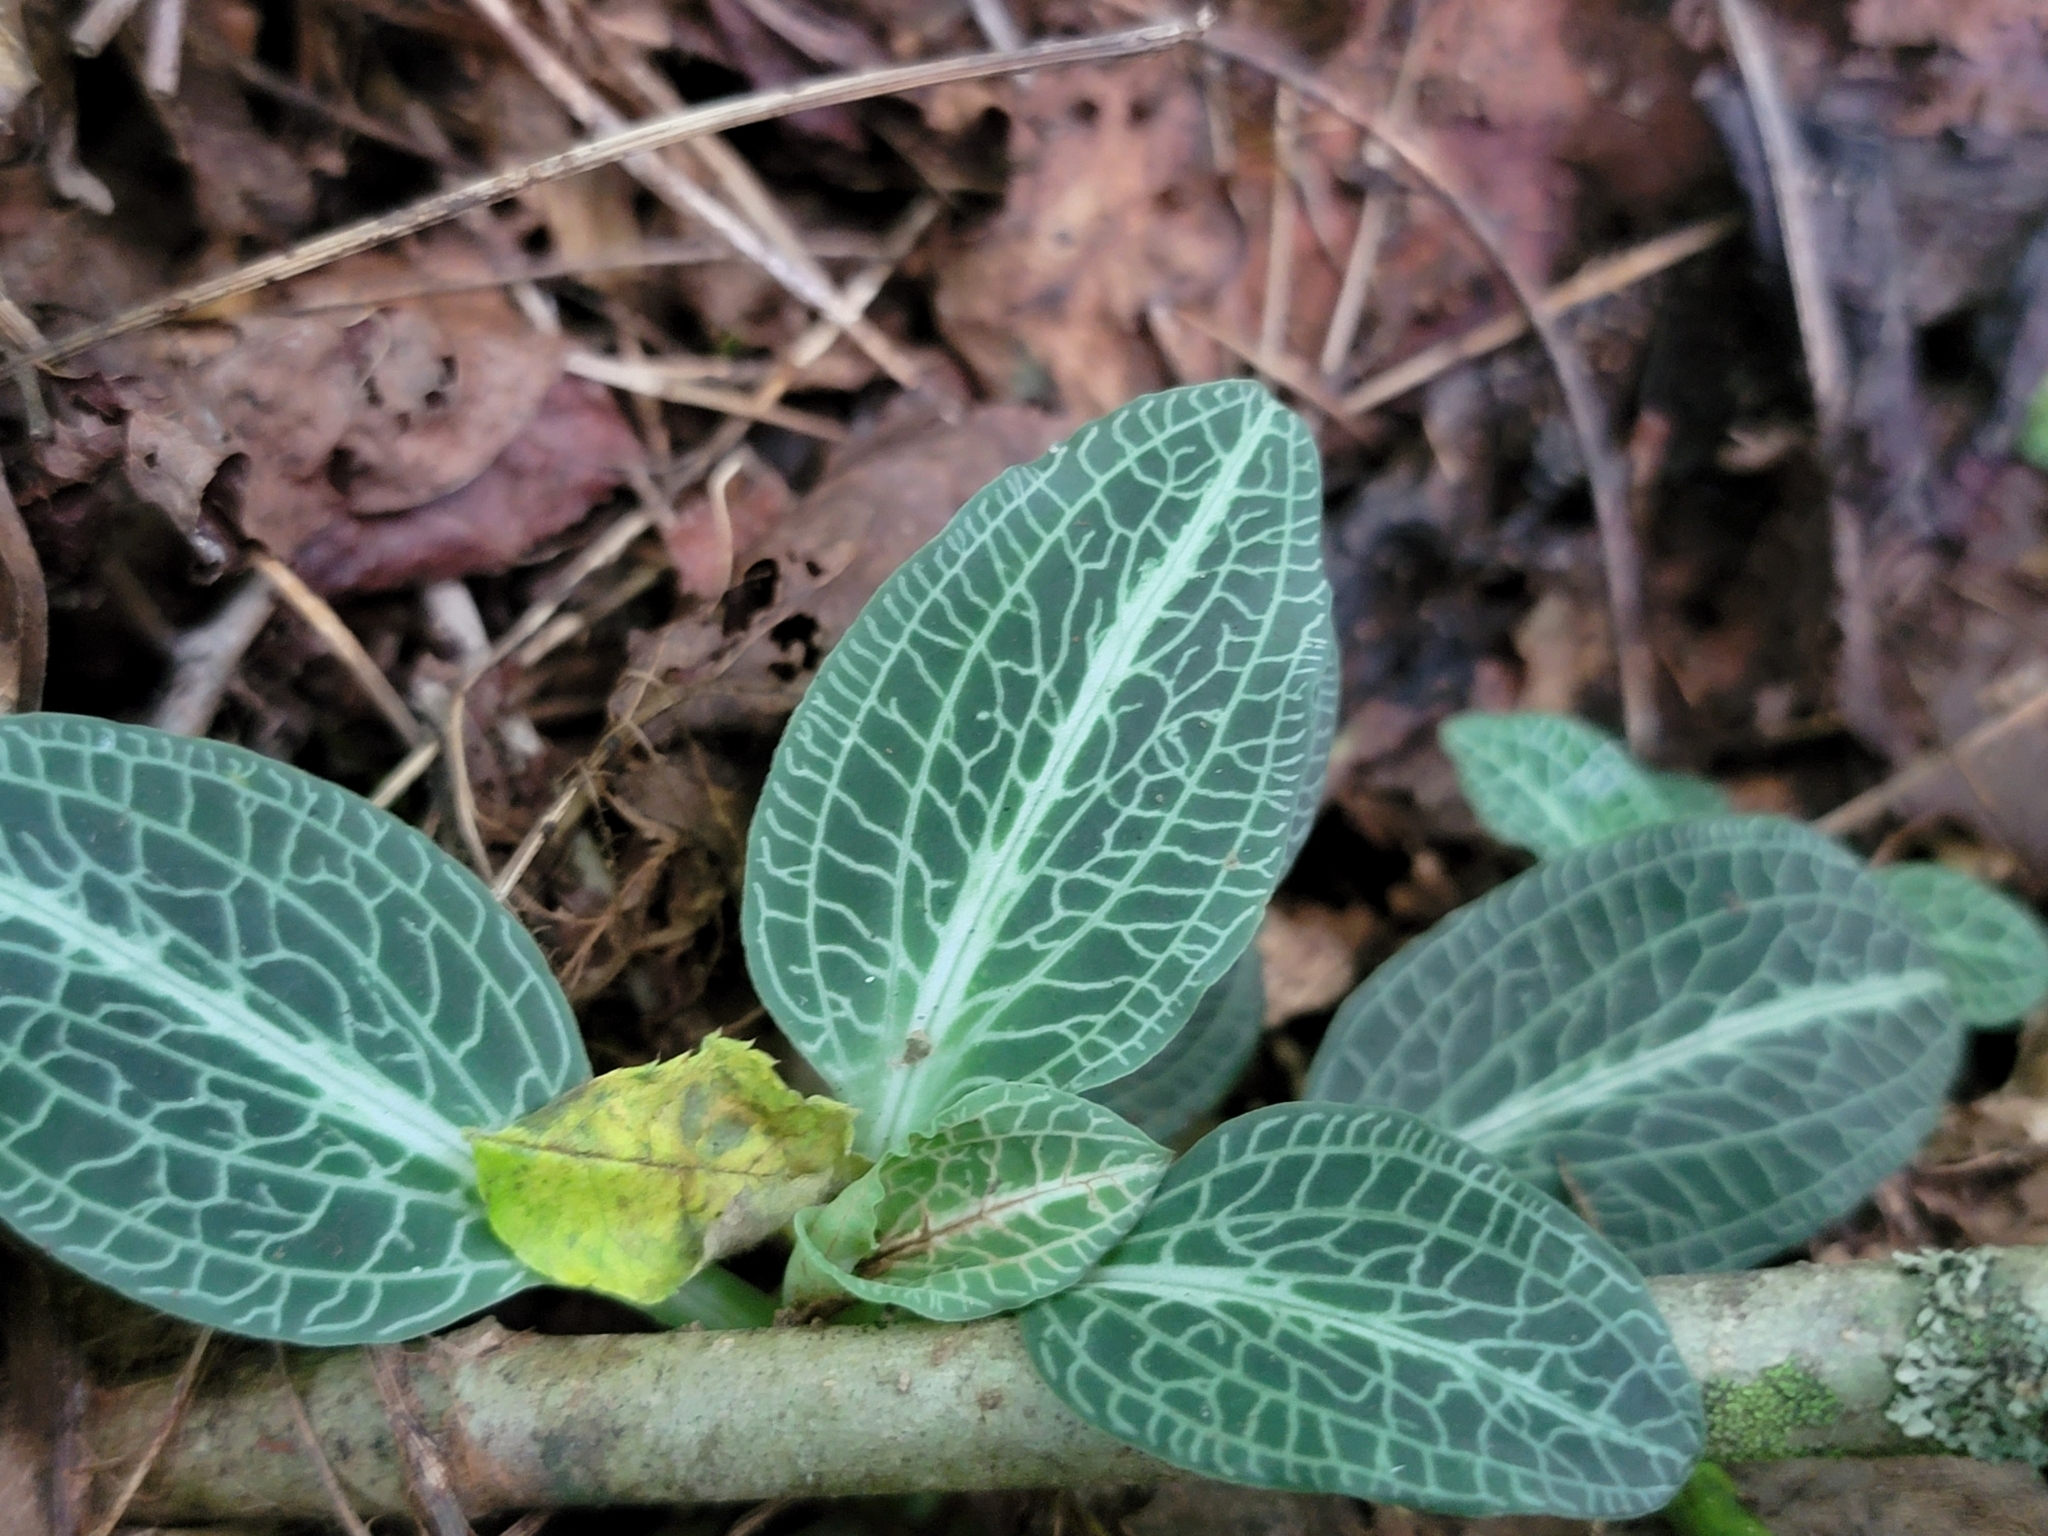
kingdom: Plantae
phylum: Tracheophyta
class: Liliopsida
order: Asparagales
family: Orchidaceae
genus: Goodyera
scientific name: Goodyera pubescens
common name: Downy rattlesnake-plantain
